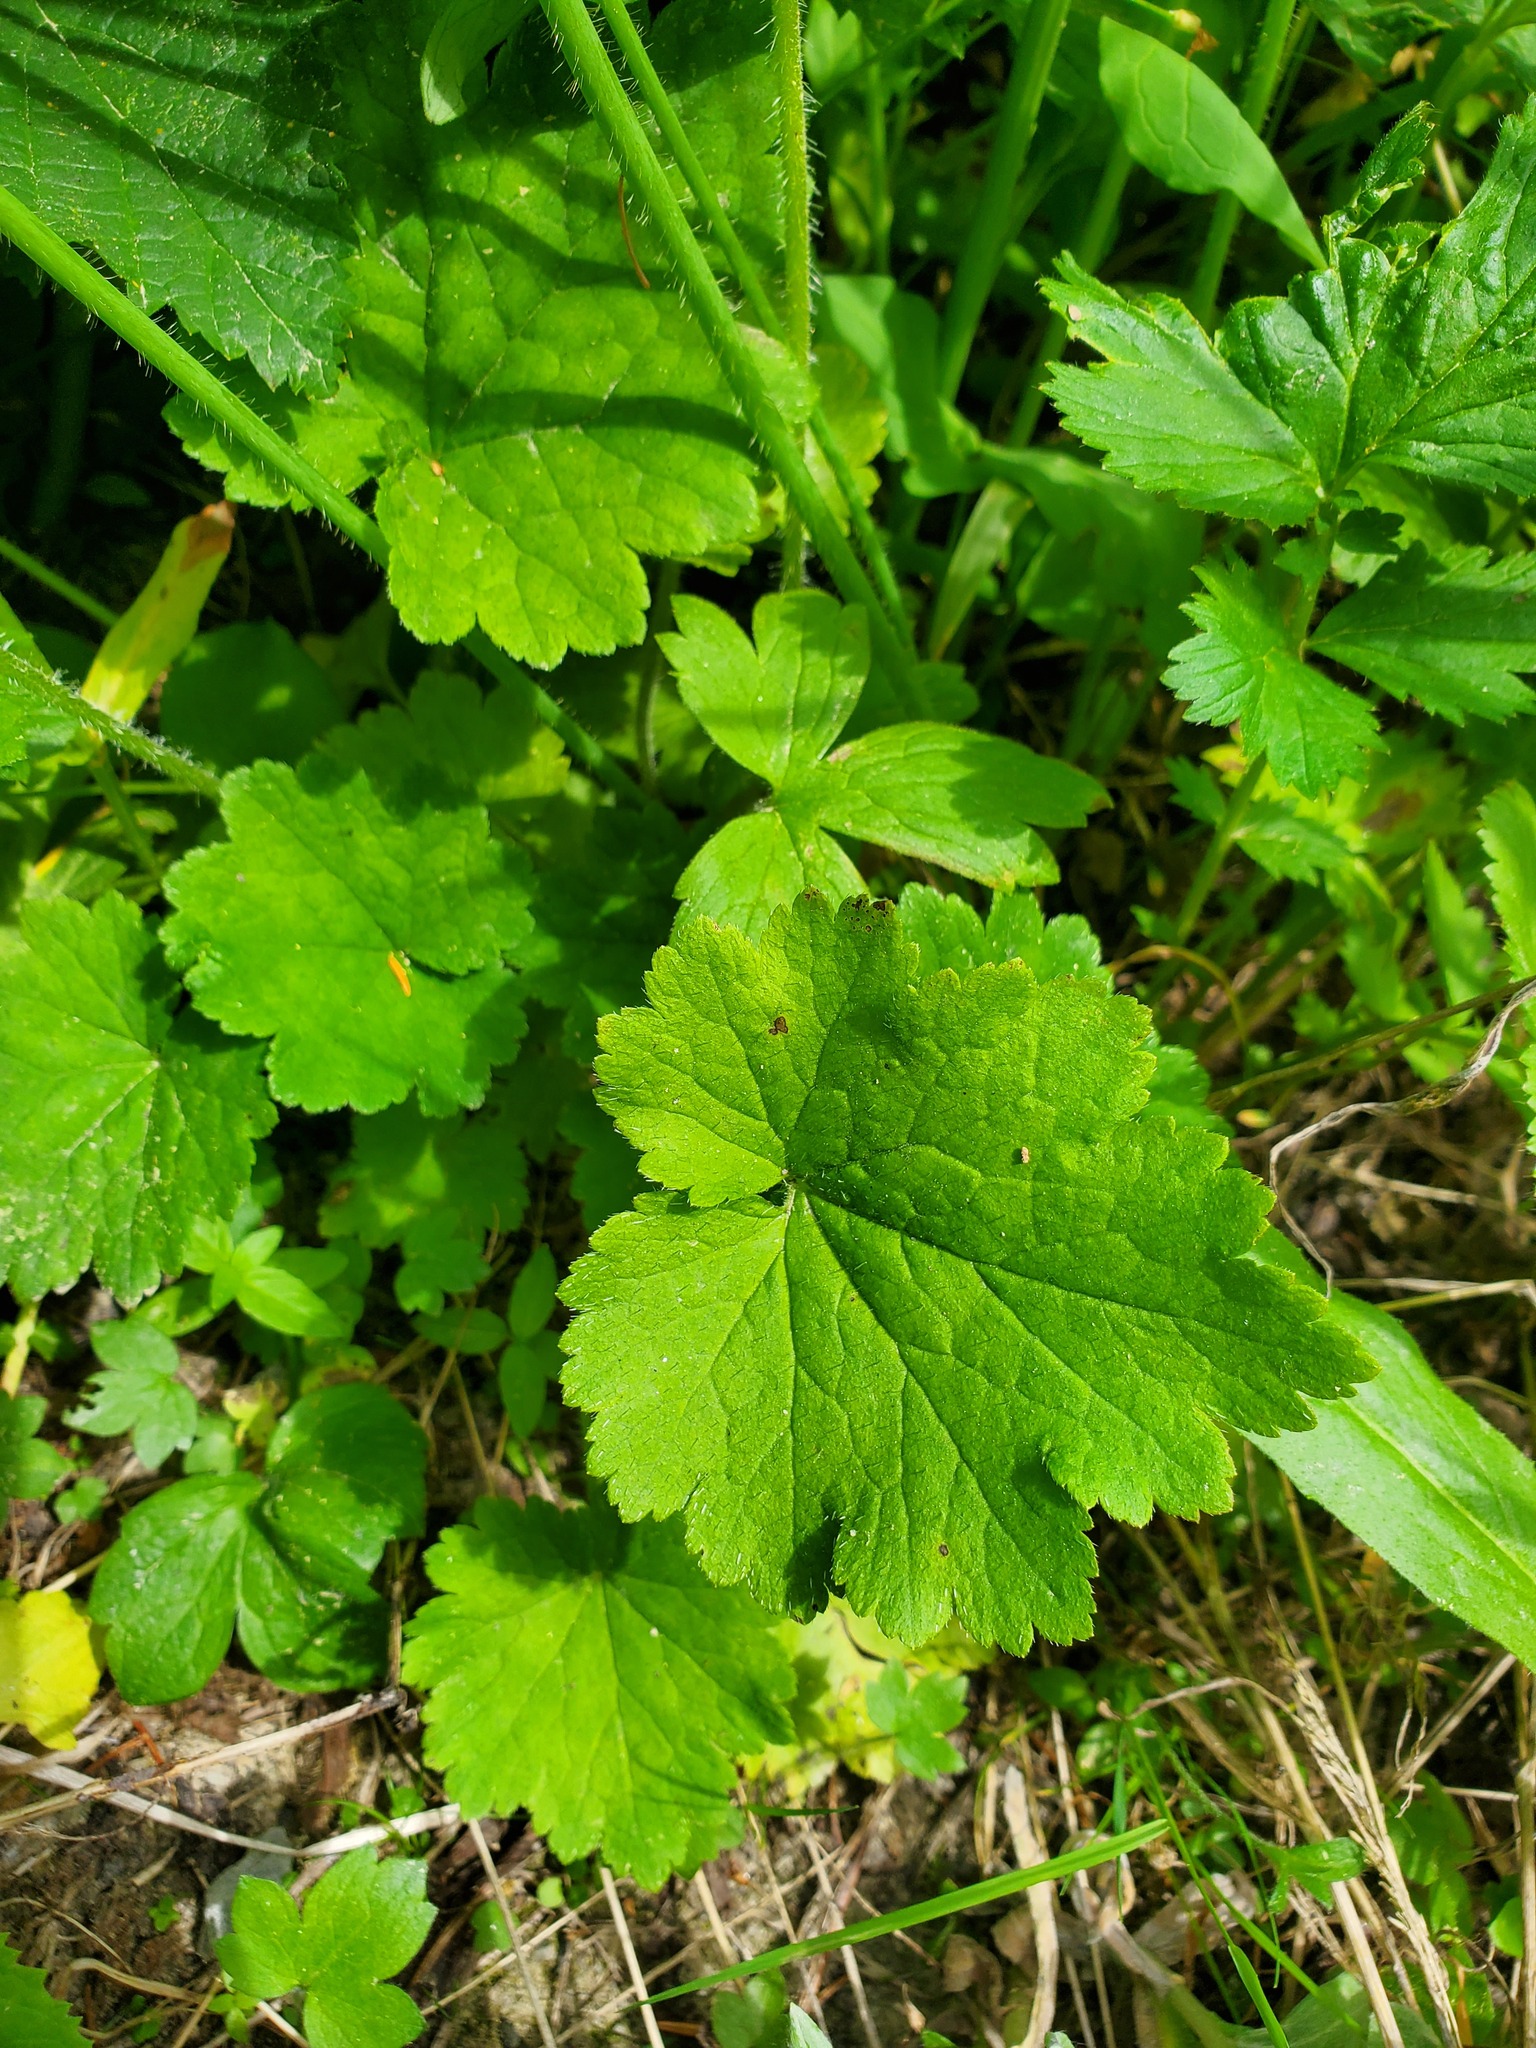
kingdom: Plantae
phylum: Tracheophyta
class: Magnoliopsida
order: Saxifragales
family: Saxifragaceae
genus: Tellima
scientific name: Tellima grandiflora
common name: Fringecups
